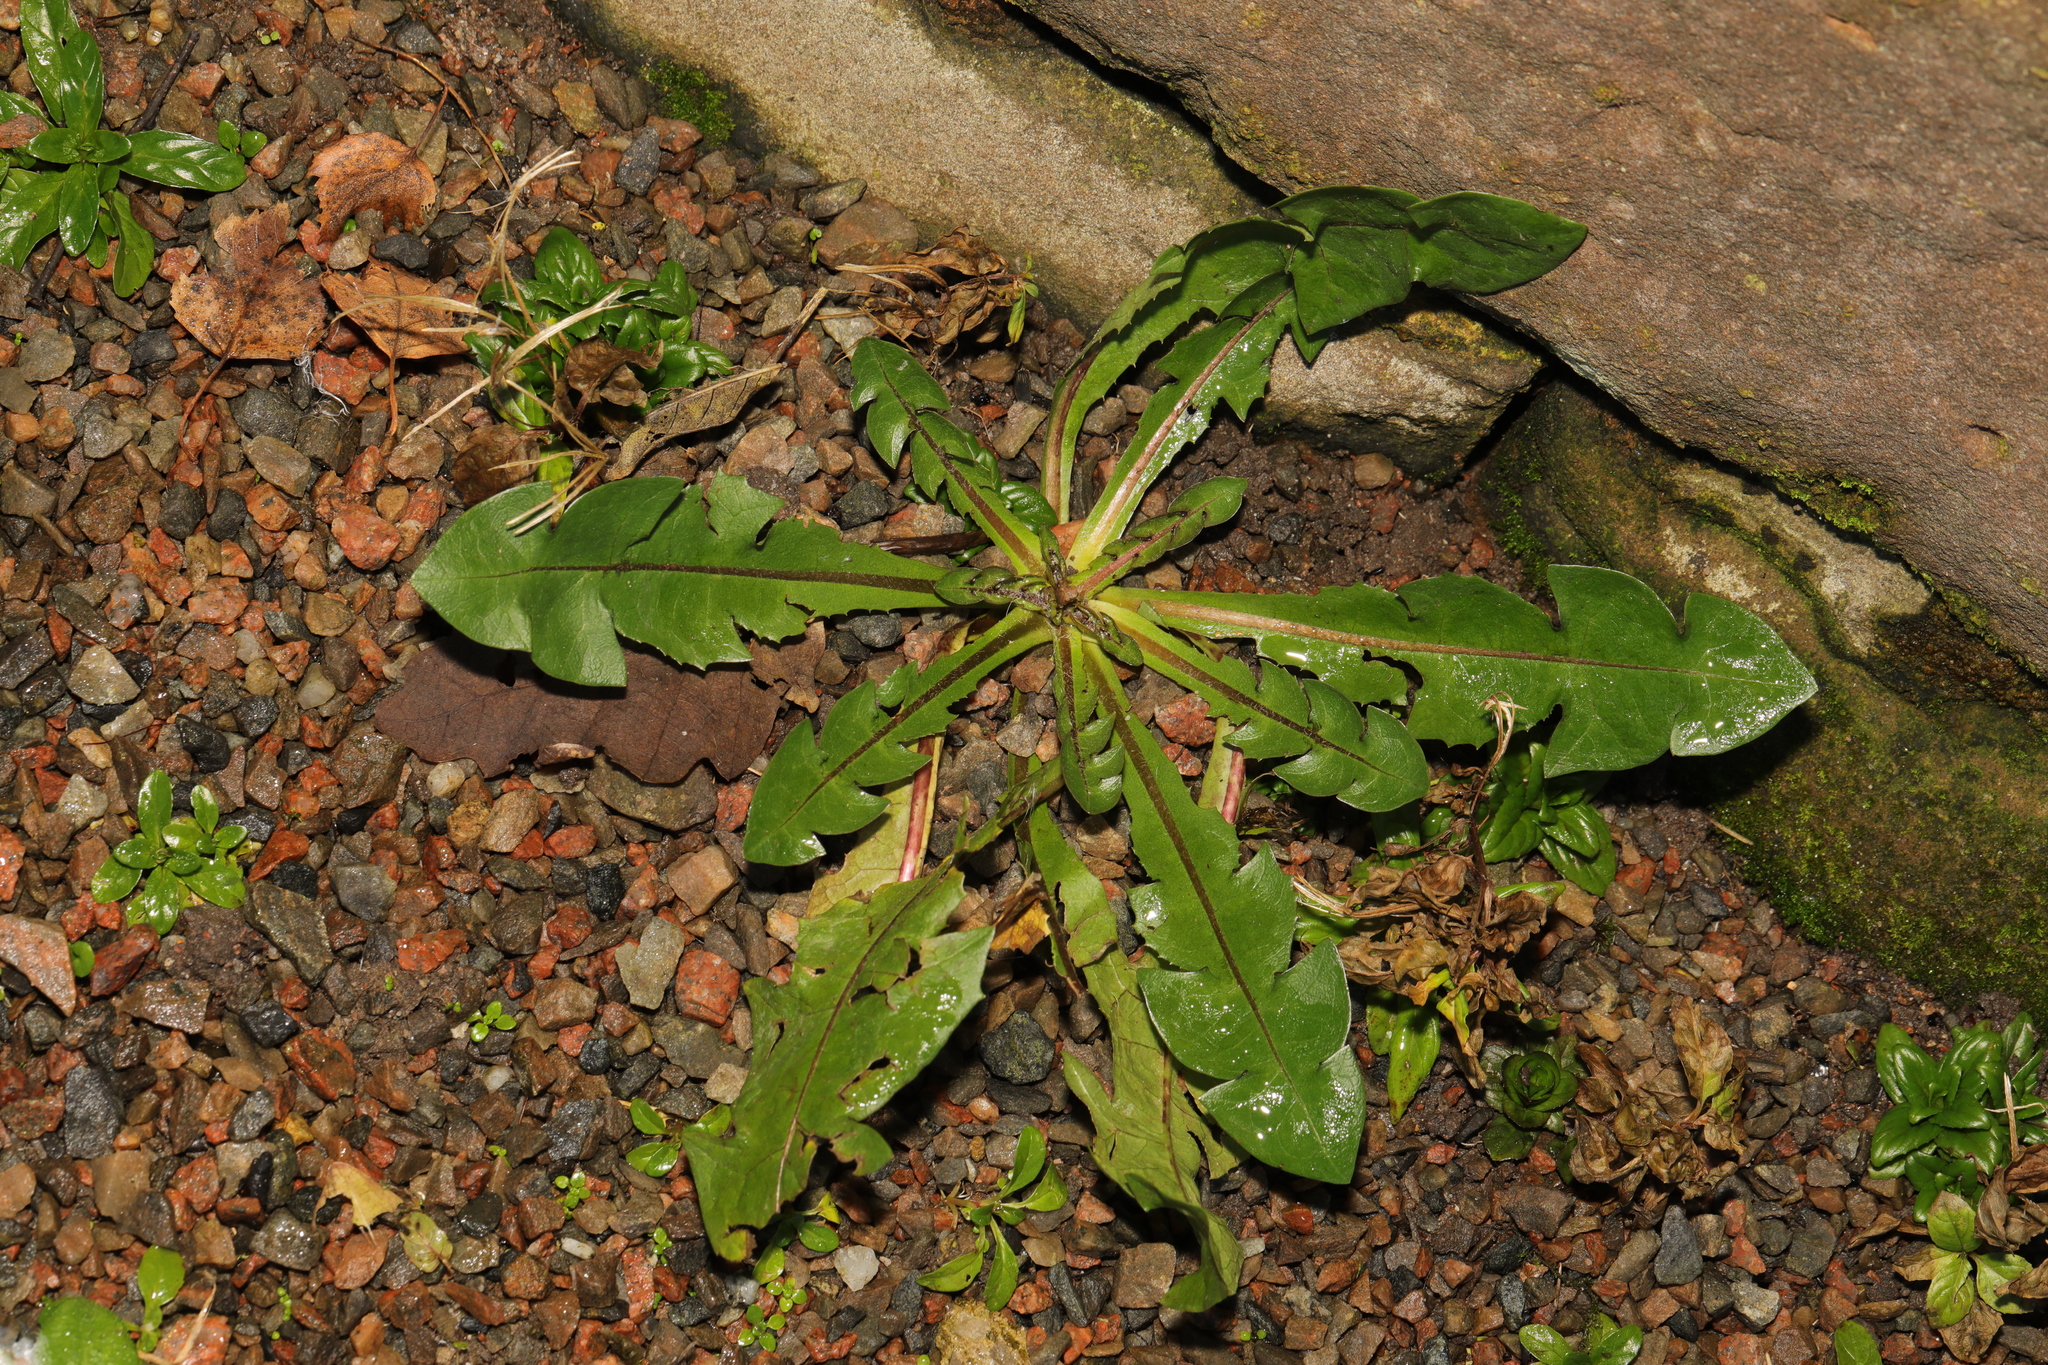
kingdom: Plantae
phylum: Tracheophyta
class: Magnoliopsida
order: Asterales
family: Asteraceae
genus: Taraxacum
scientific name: Taraxacum officinale
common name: Common dandelion
